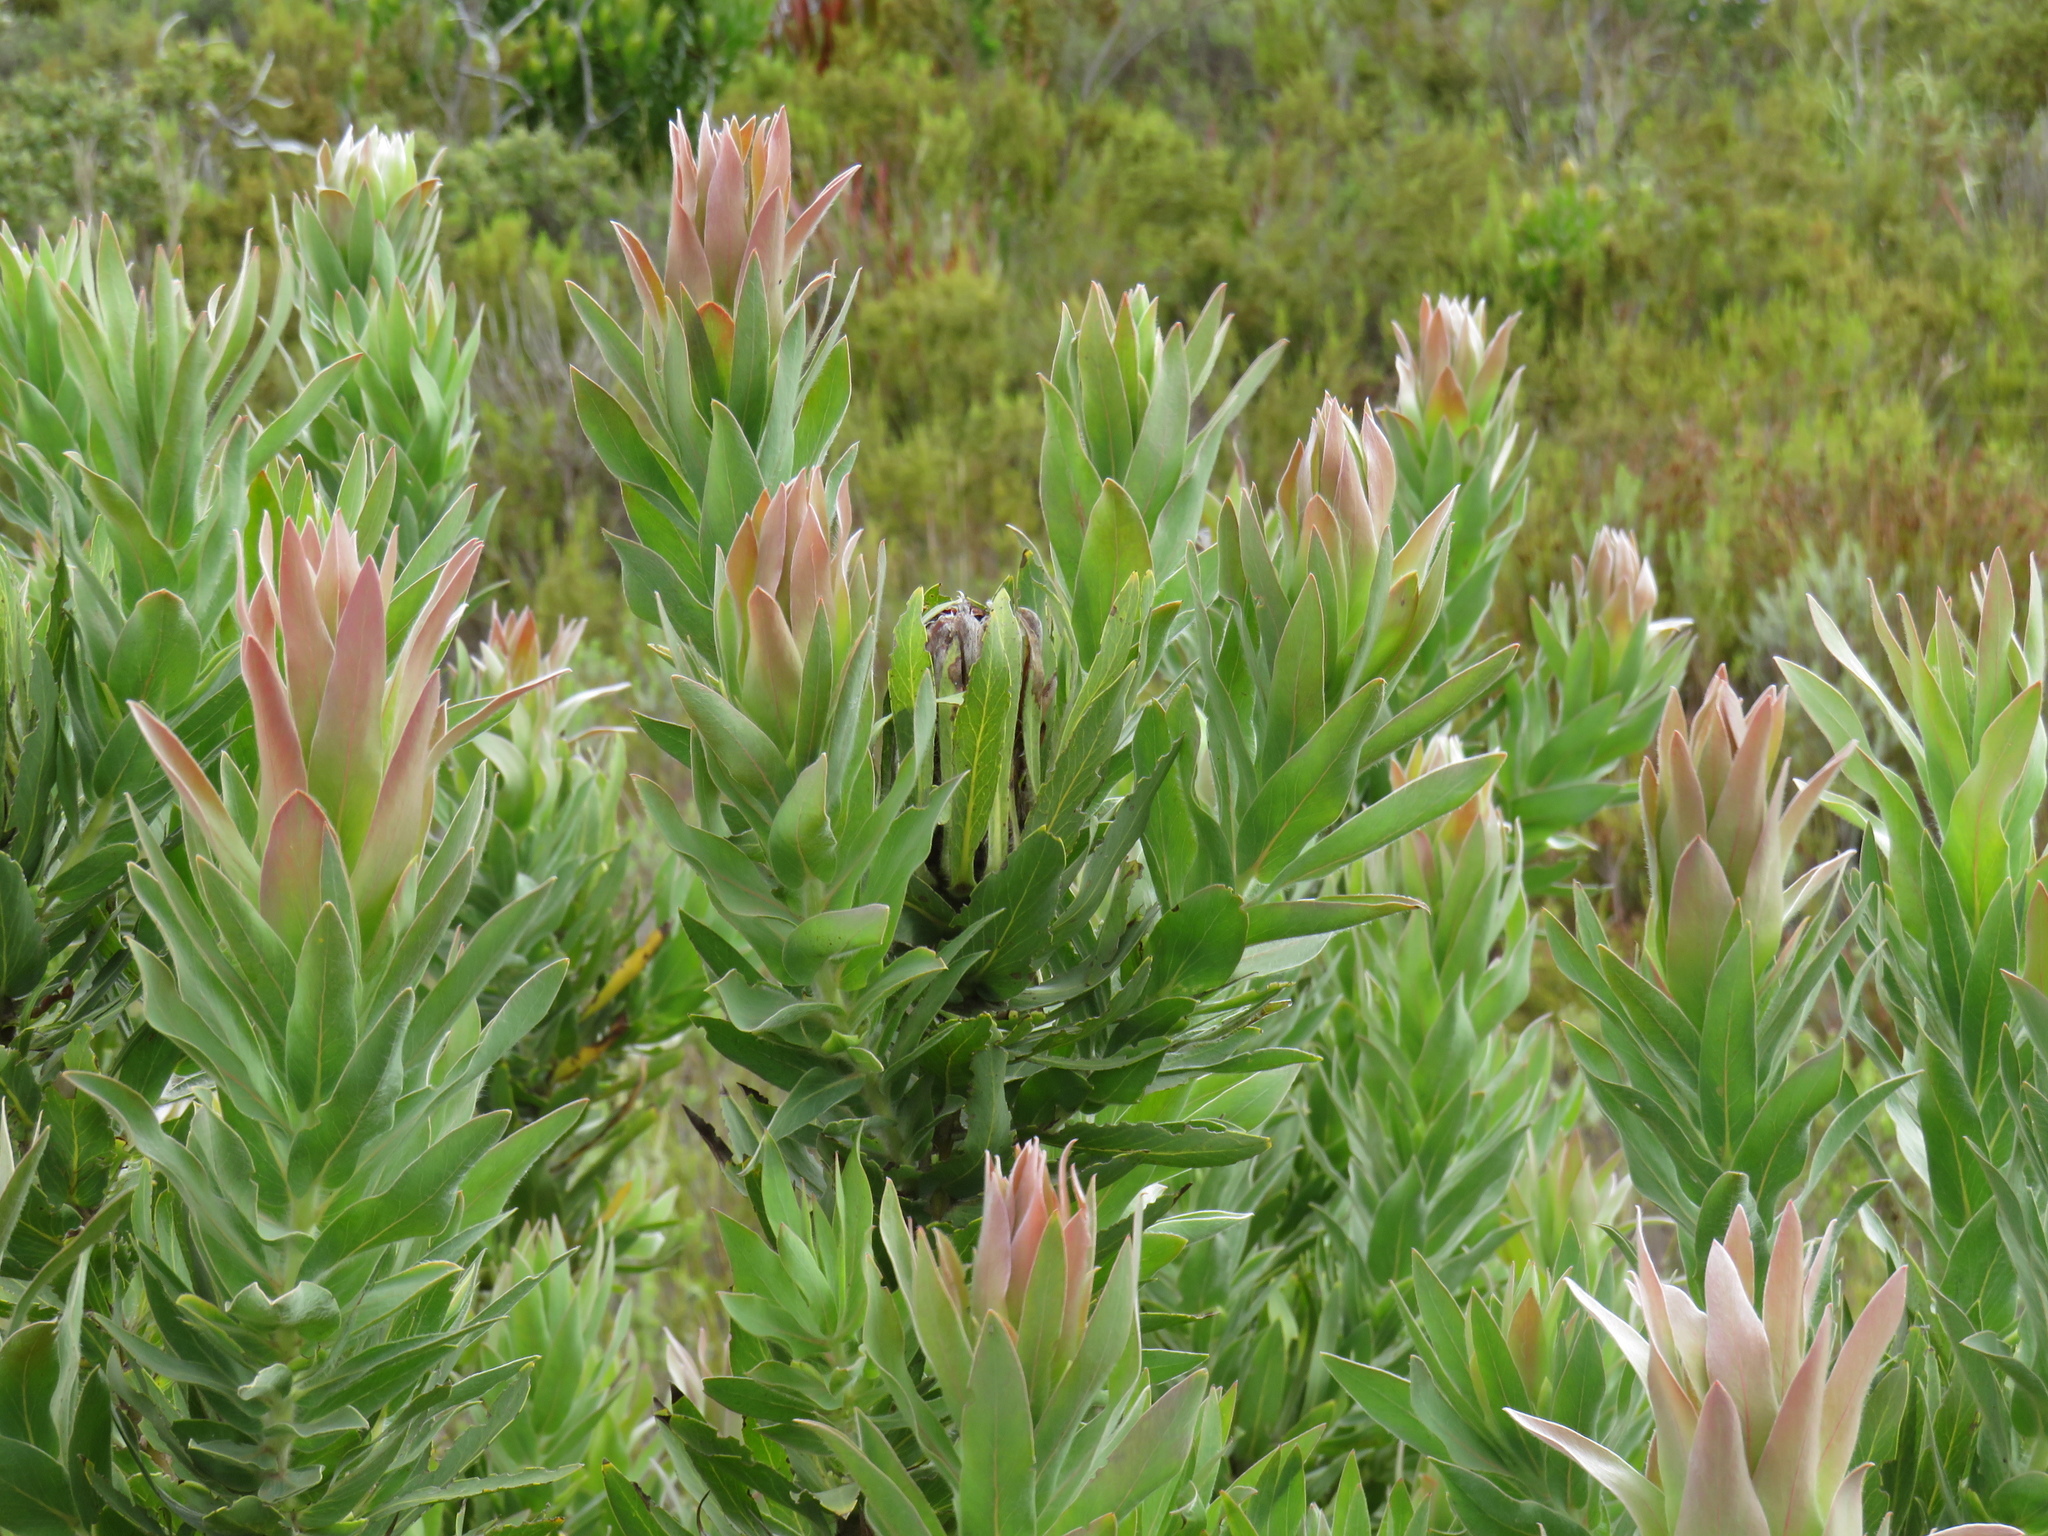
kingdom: Plantae
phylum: Tracheophyta
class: Magnoliopsida
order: Proteales
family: Proteaceae
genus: Protea
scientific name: Protea coronata
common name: Green sugarbush
